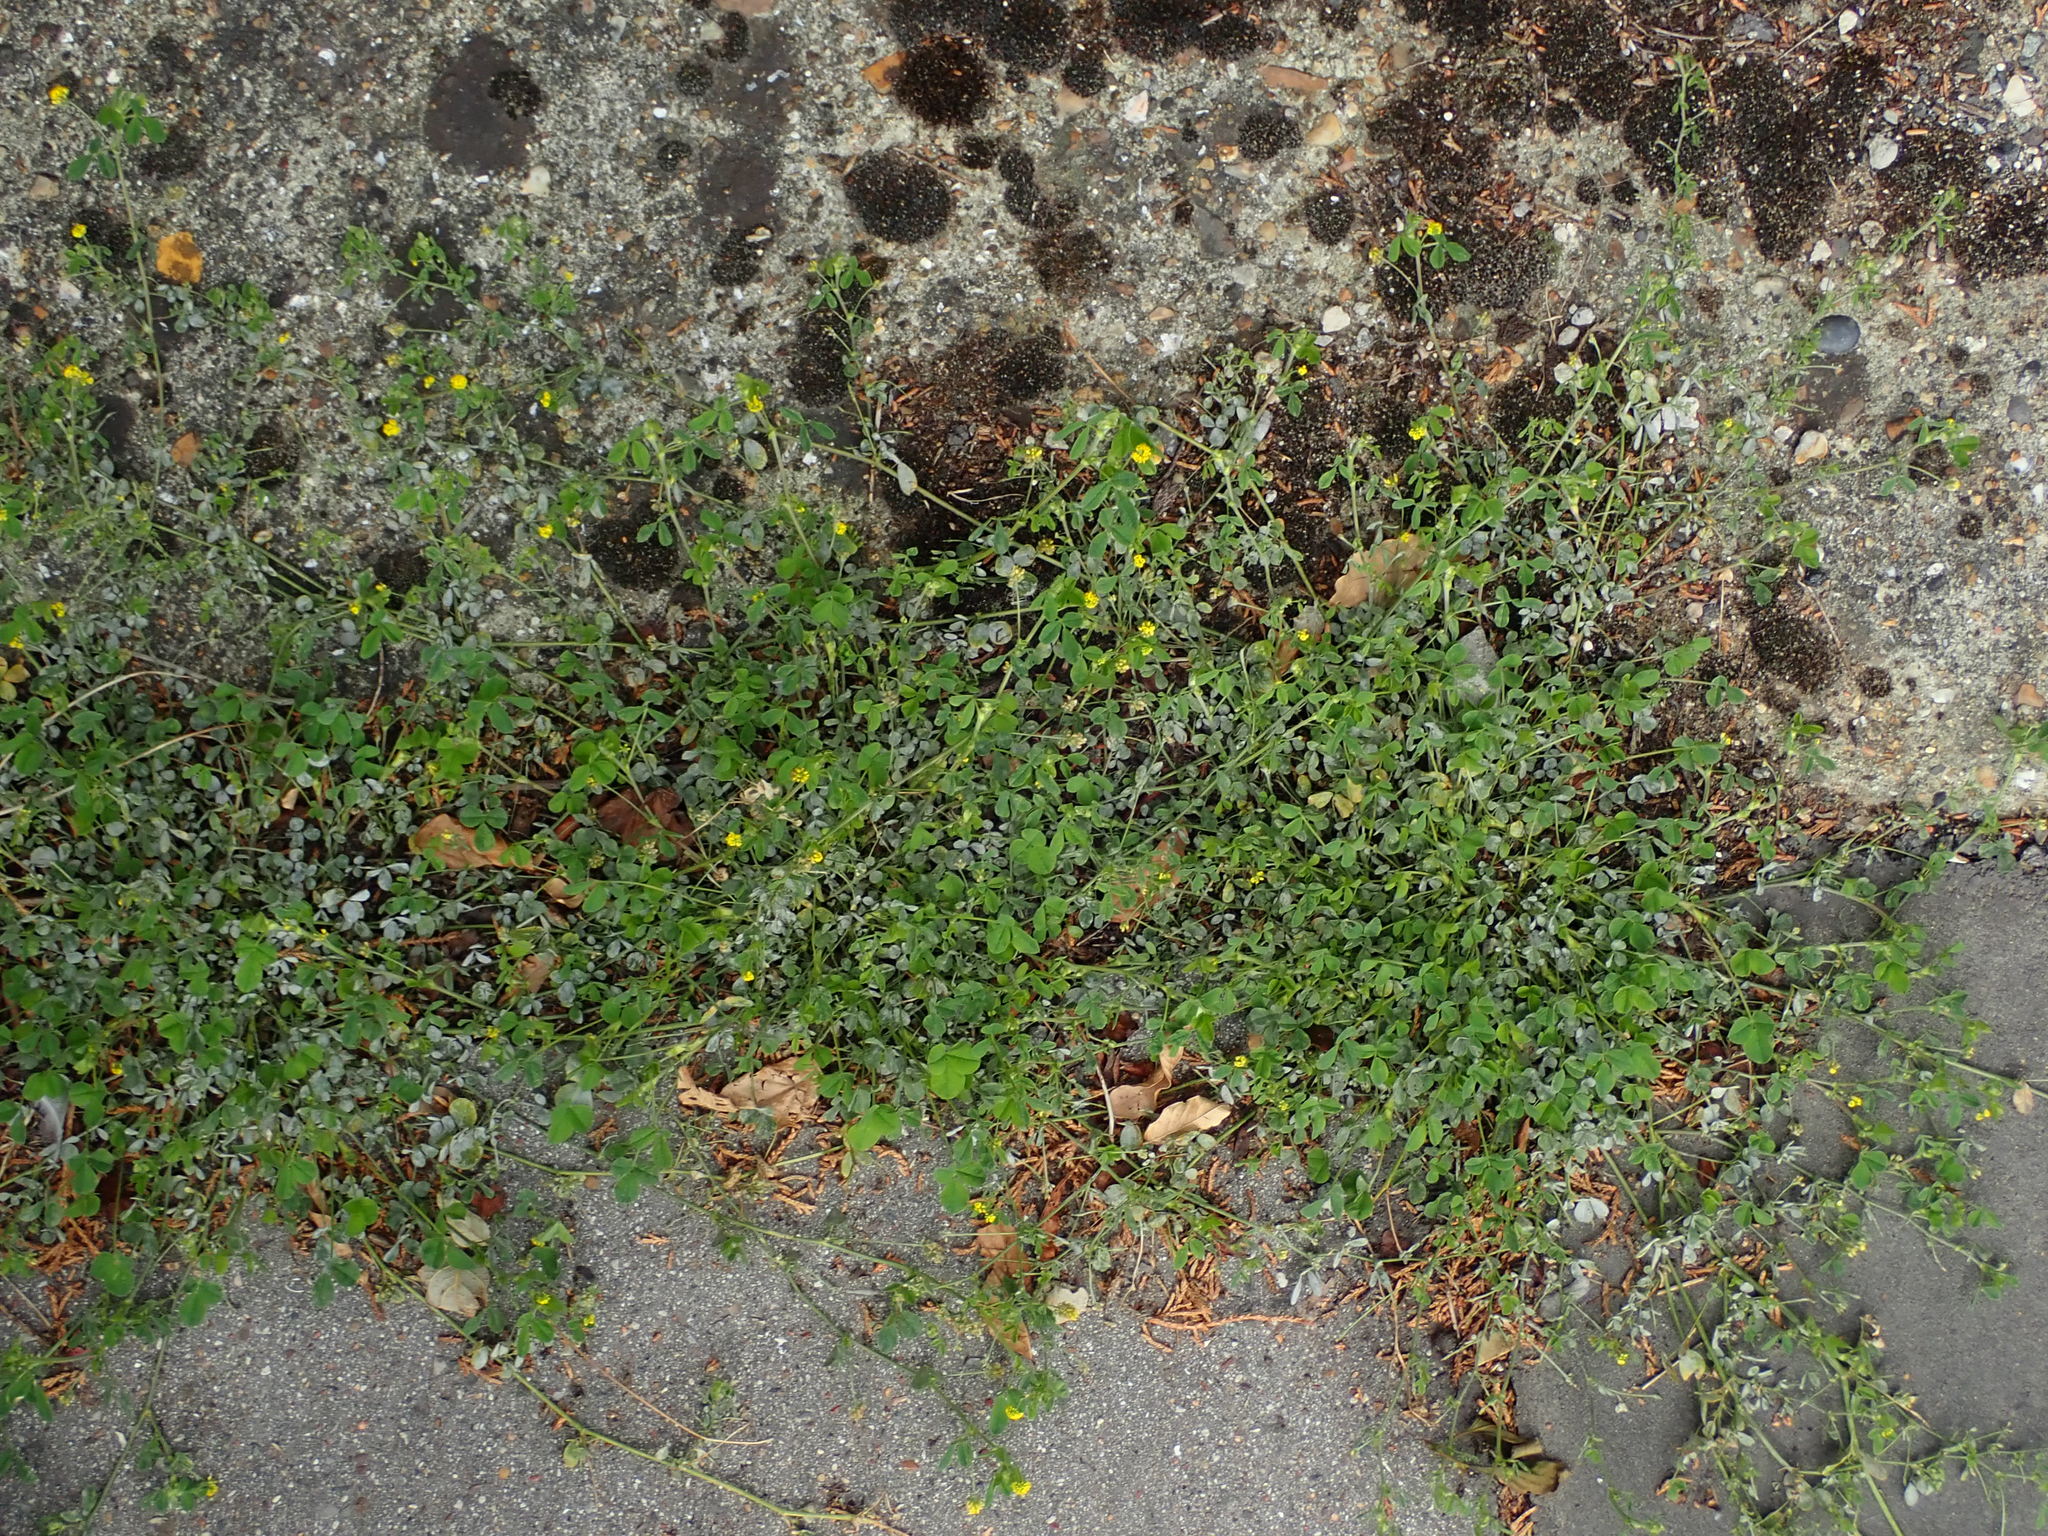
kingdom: Plantae
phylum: Tracheophyta
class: Magnoliopsida
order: Fabales
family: Fabaceae
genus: Medicago
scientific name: Medicago lupulina
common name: Black medick
